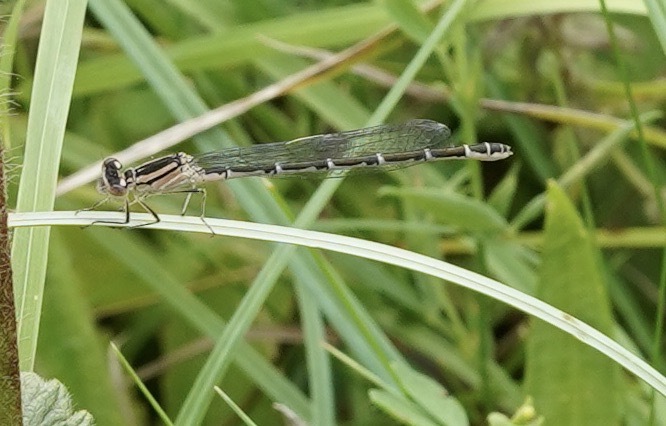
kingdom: Animalia
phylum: Arthropoda
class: Insecta
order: Odonata
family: Coenagrionidae
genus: Enallagma
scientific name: Enallagma cyathigerum
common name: Common blue damselfly
